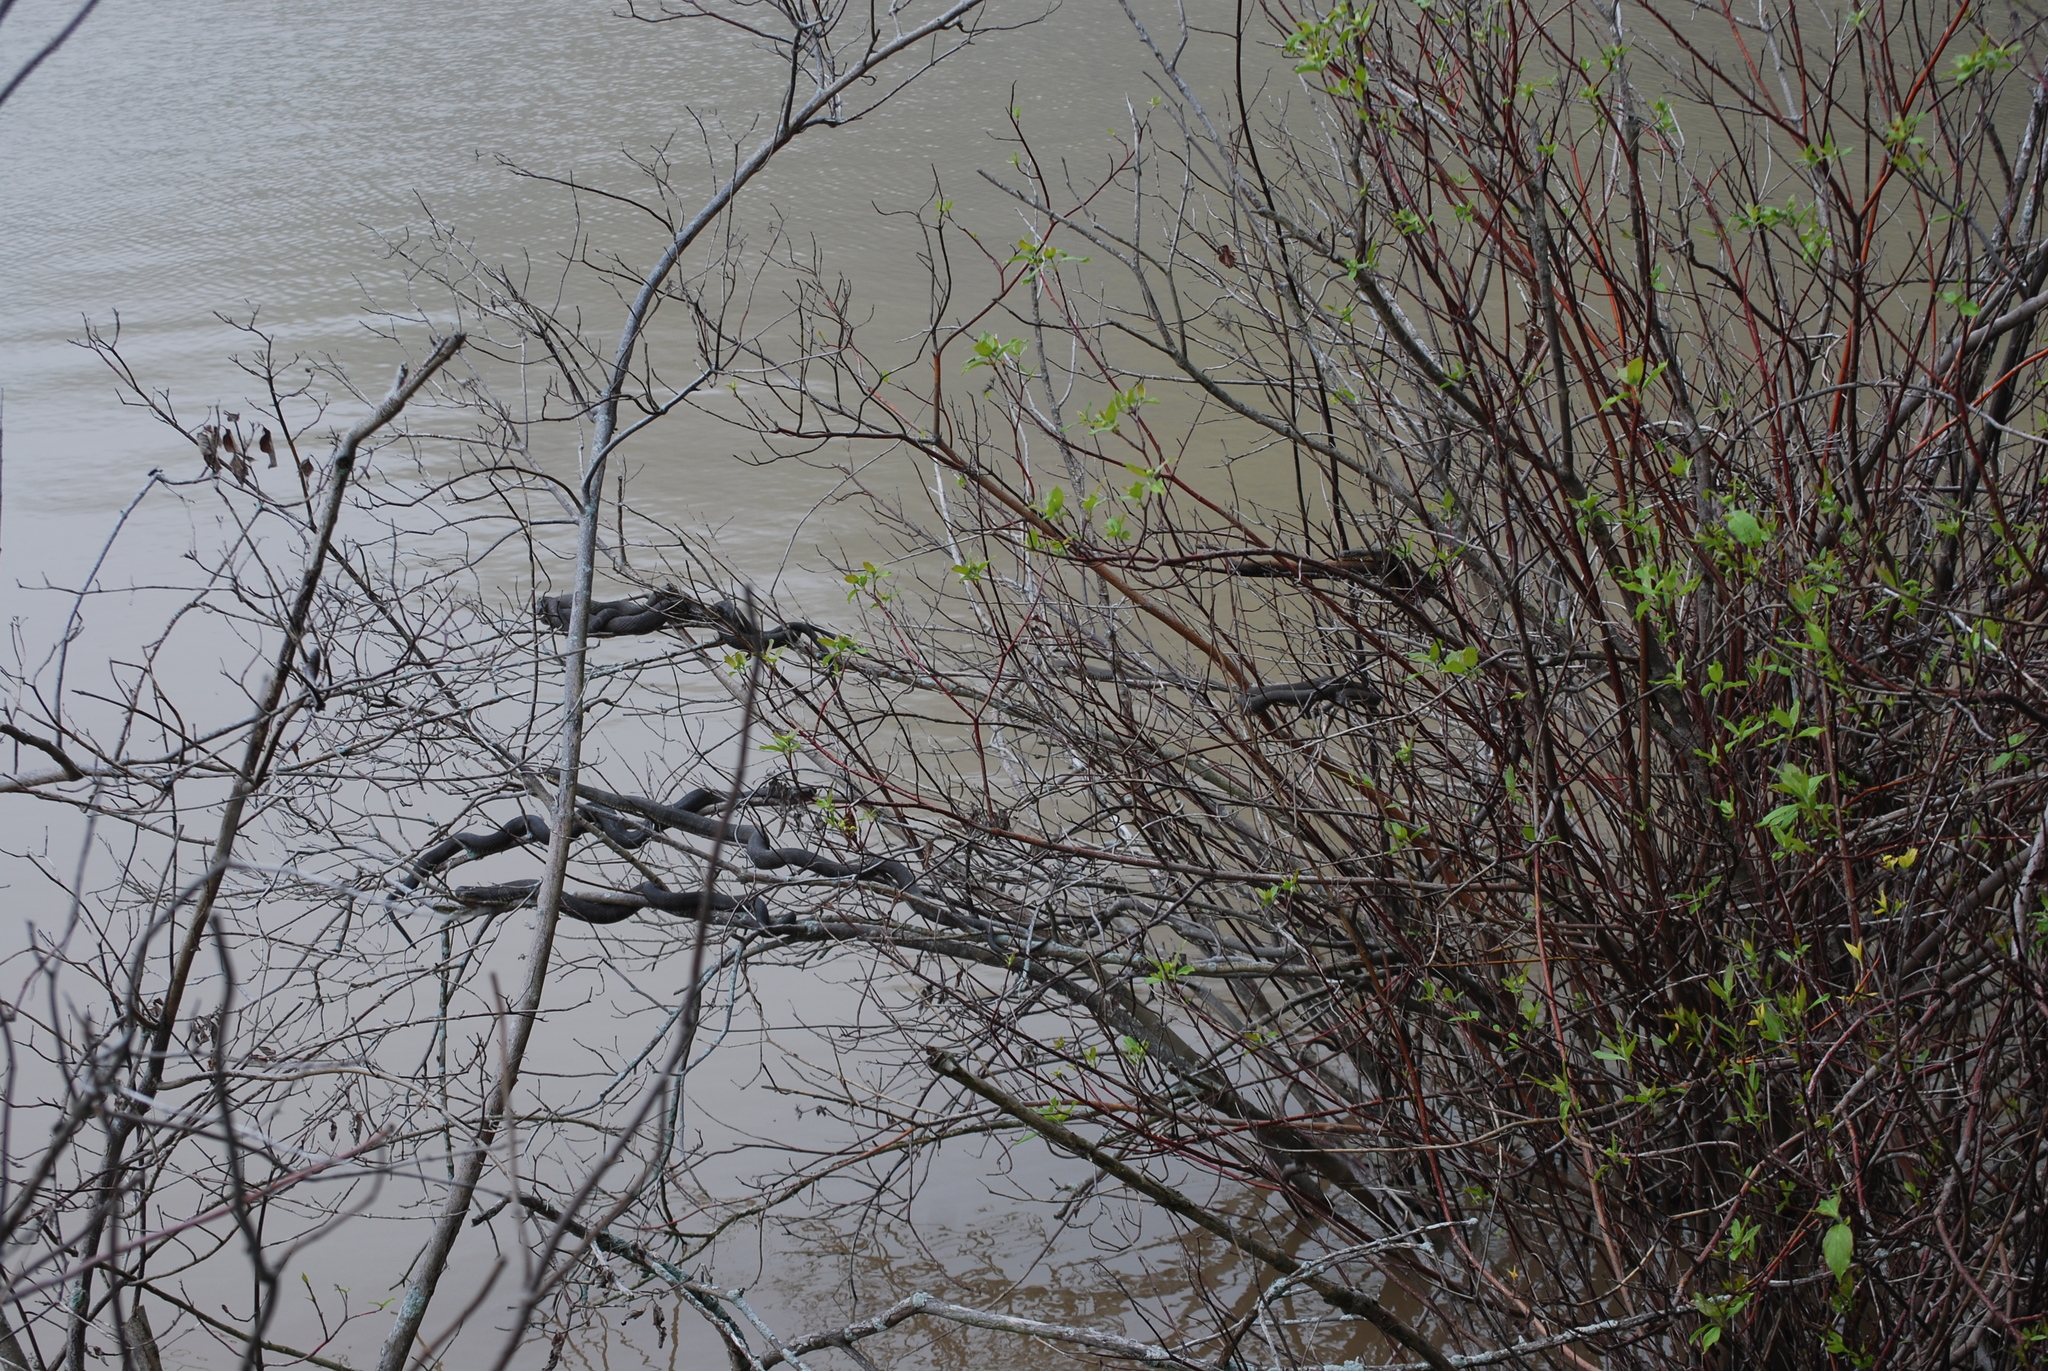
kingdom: Animalia
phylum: Chordata
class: Squamata
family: Colubridae
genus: Nerodia
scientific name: Nerodia sipedon
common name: Northern water snake
